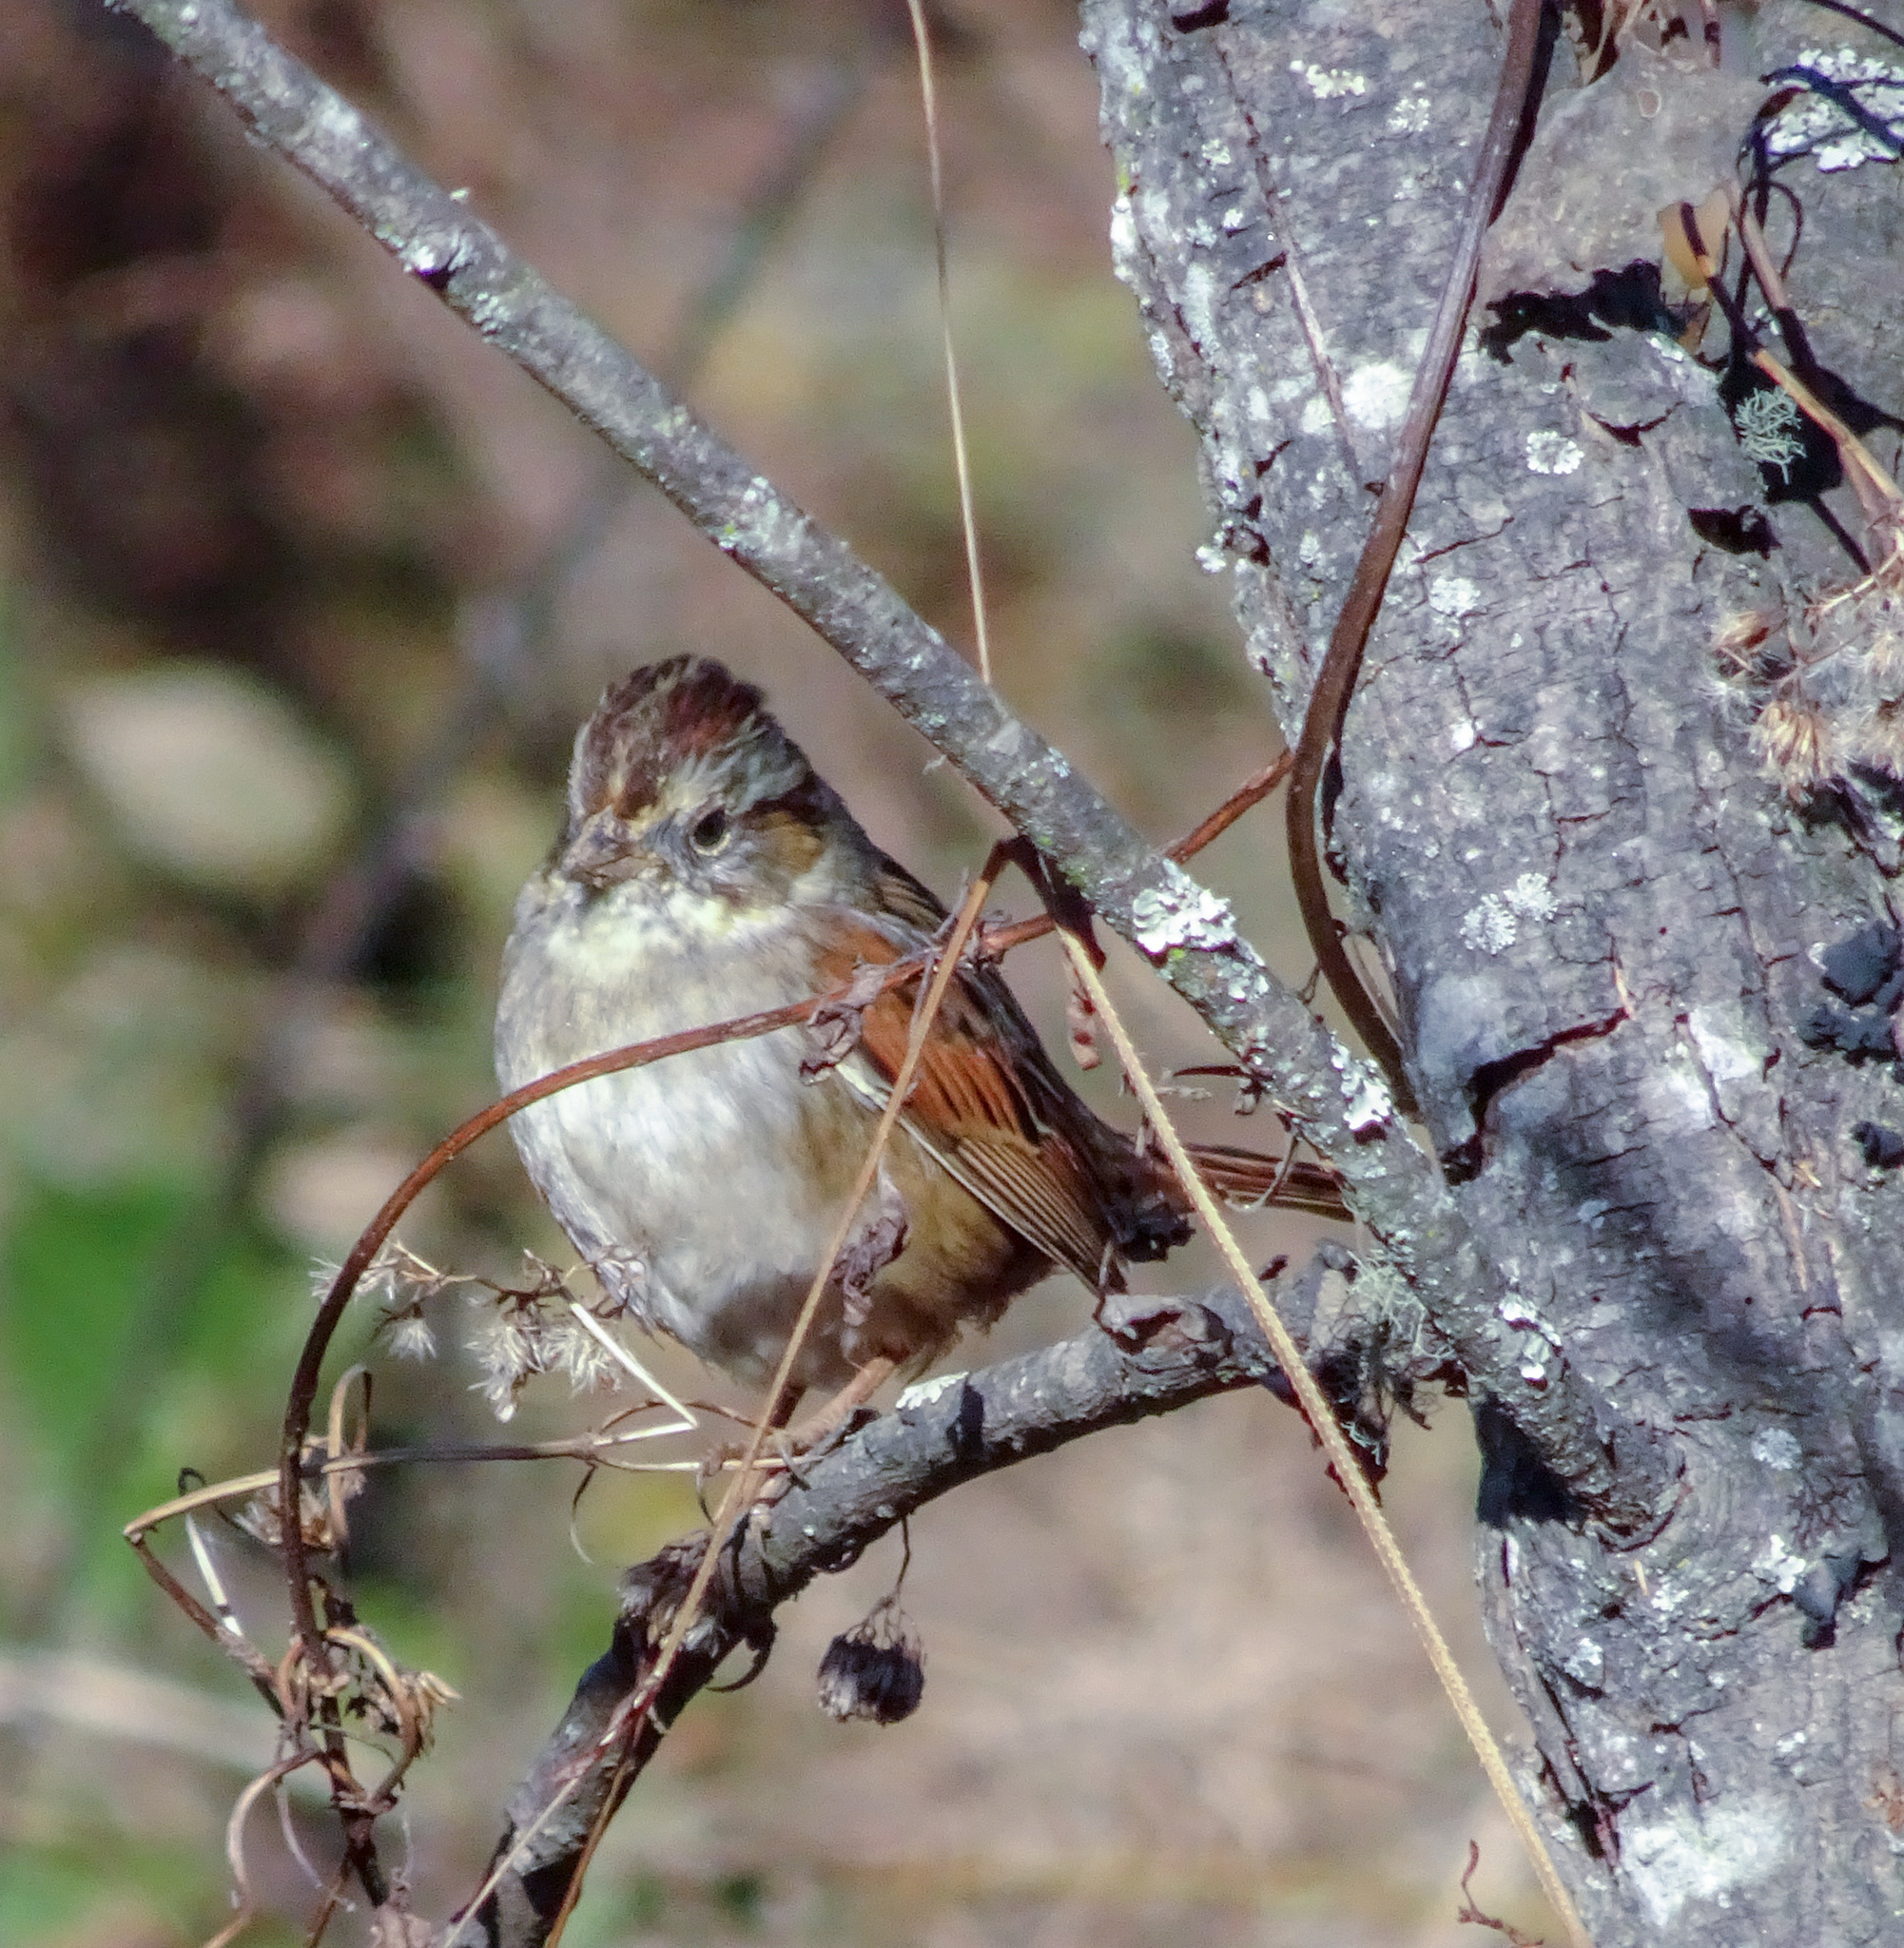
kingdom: Animalia
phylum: Chordata
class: Aves
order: Passeriformes
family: Passerellidae
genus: Melospiza
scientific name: Melospiza georgiana
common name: Swamp sparrow
